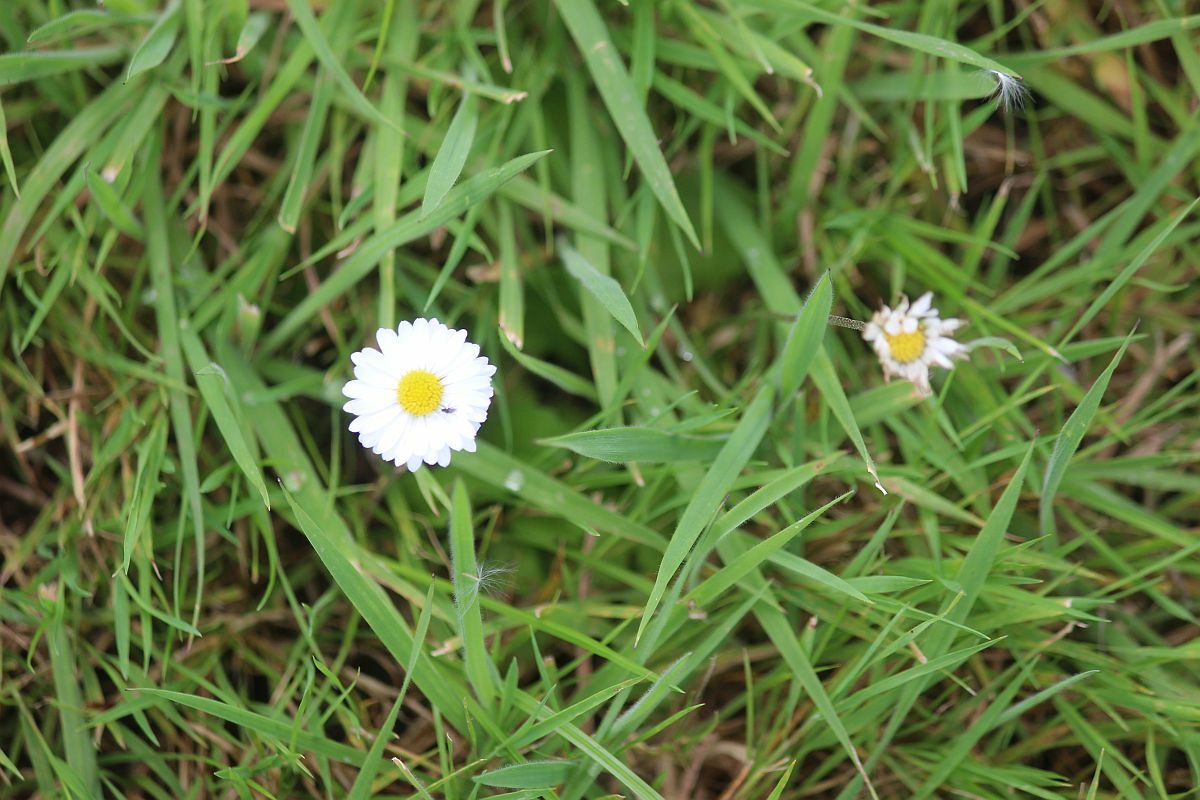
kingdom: Plantae
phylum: Tracheophyta
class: Magnoliopsida
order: Asterales
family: Asteraceae
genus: Bellis
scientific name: Bellis perennis
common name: Lawndaisy
